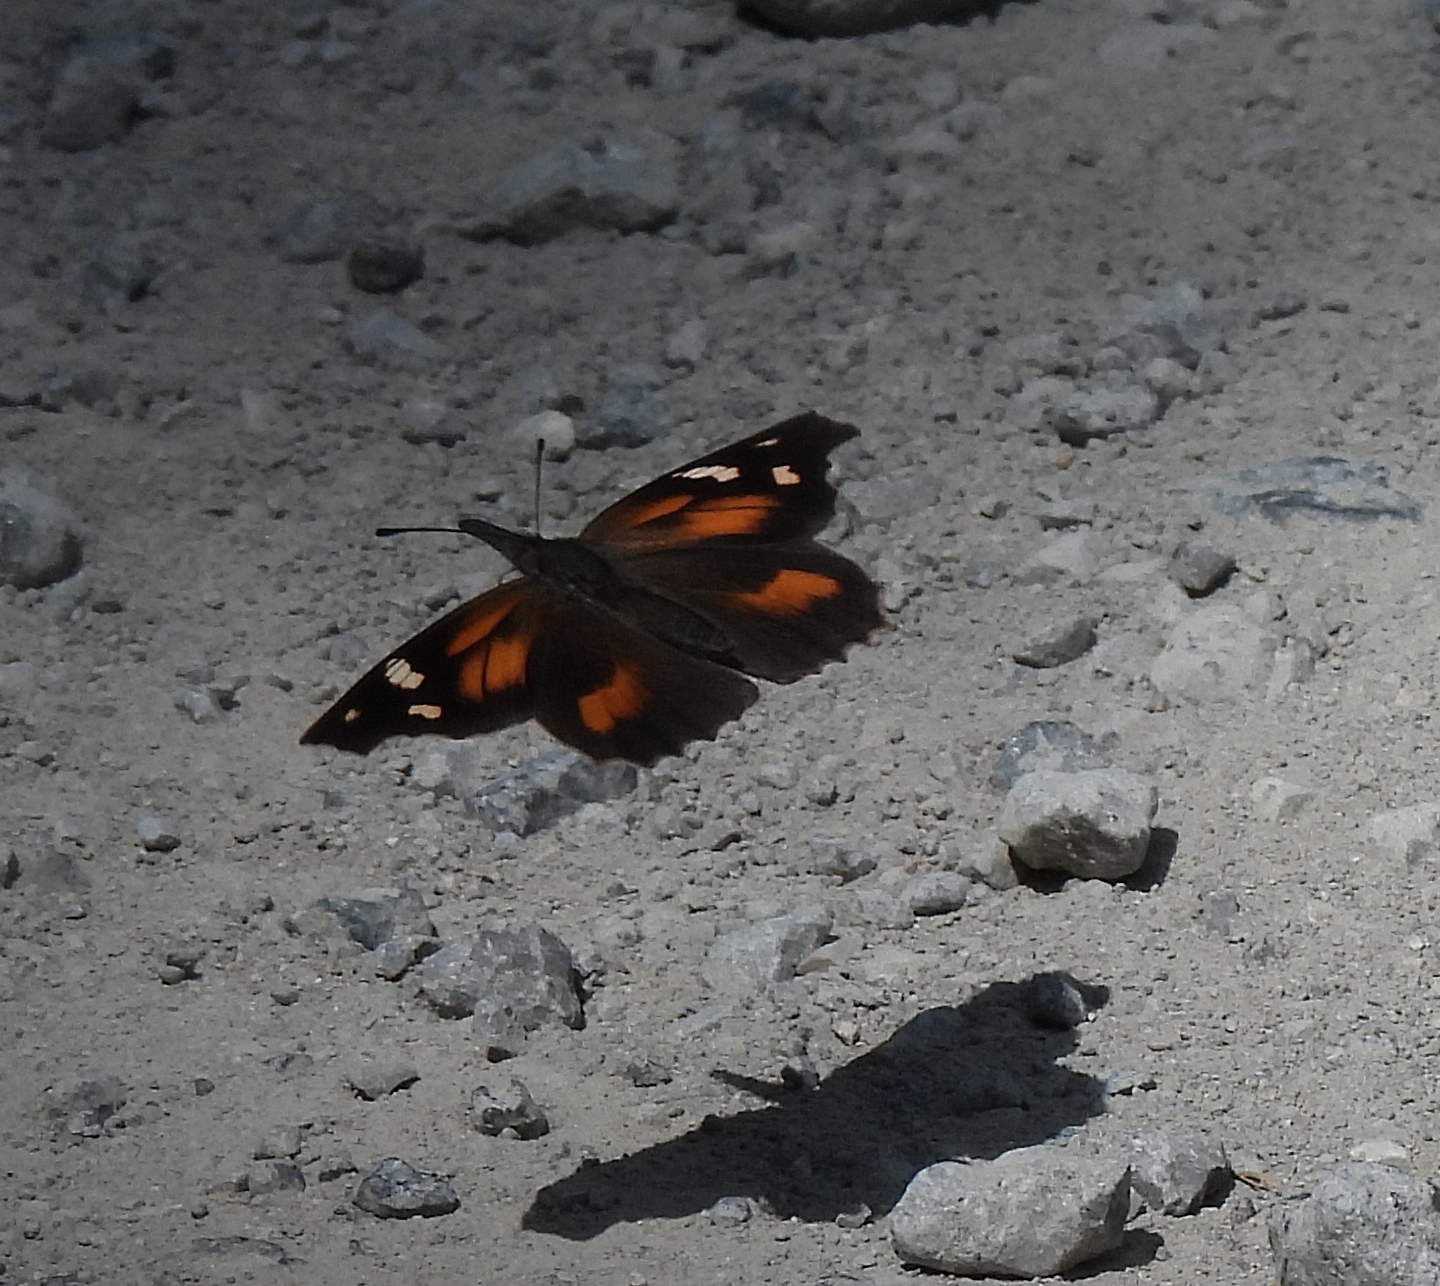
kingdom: Animalia
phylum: Arthropoda
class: Insecta
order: Lepidoptera
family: Nymphalidae
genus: Libytheana
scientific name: Libytheana carinenta
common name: American snout
